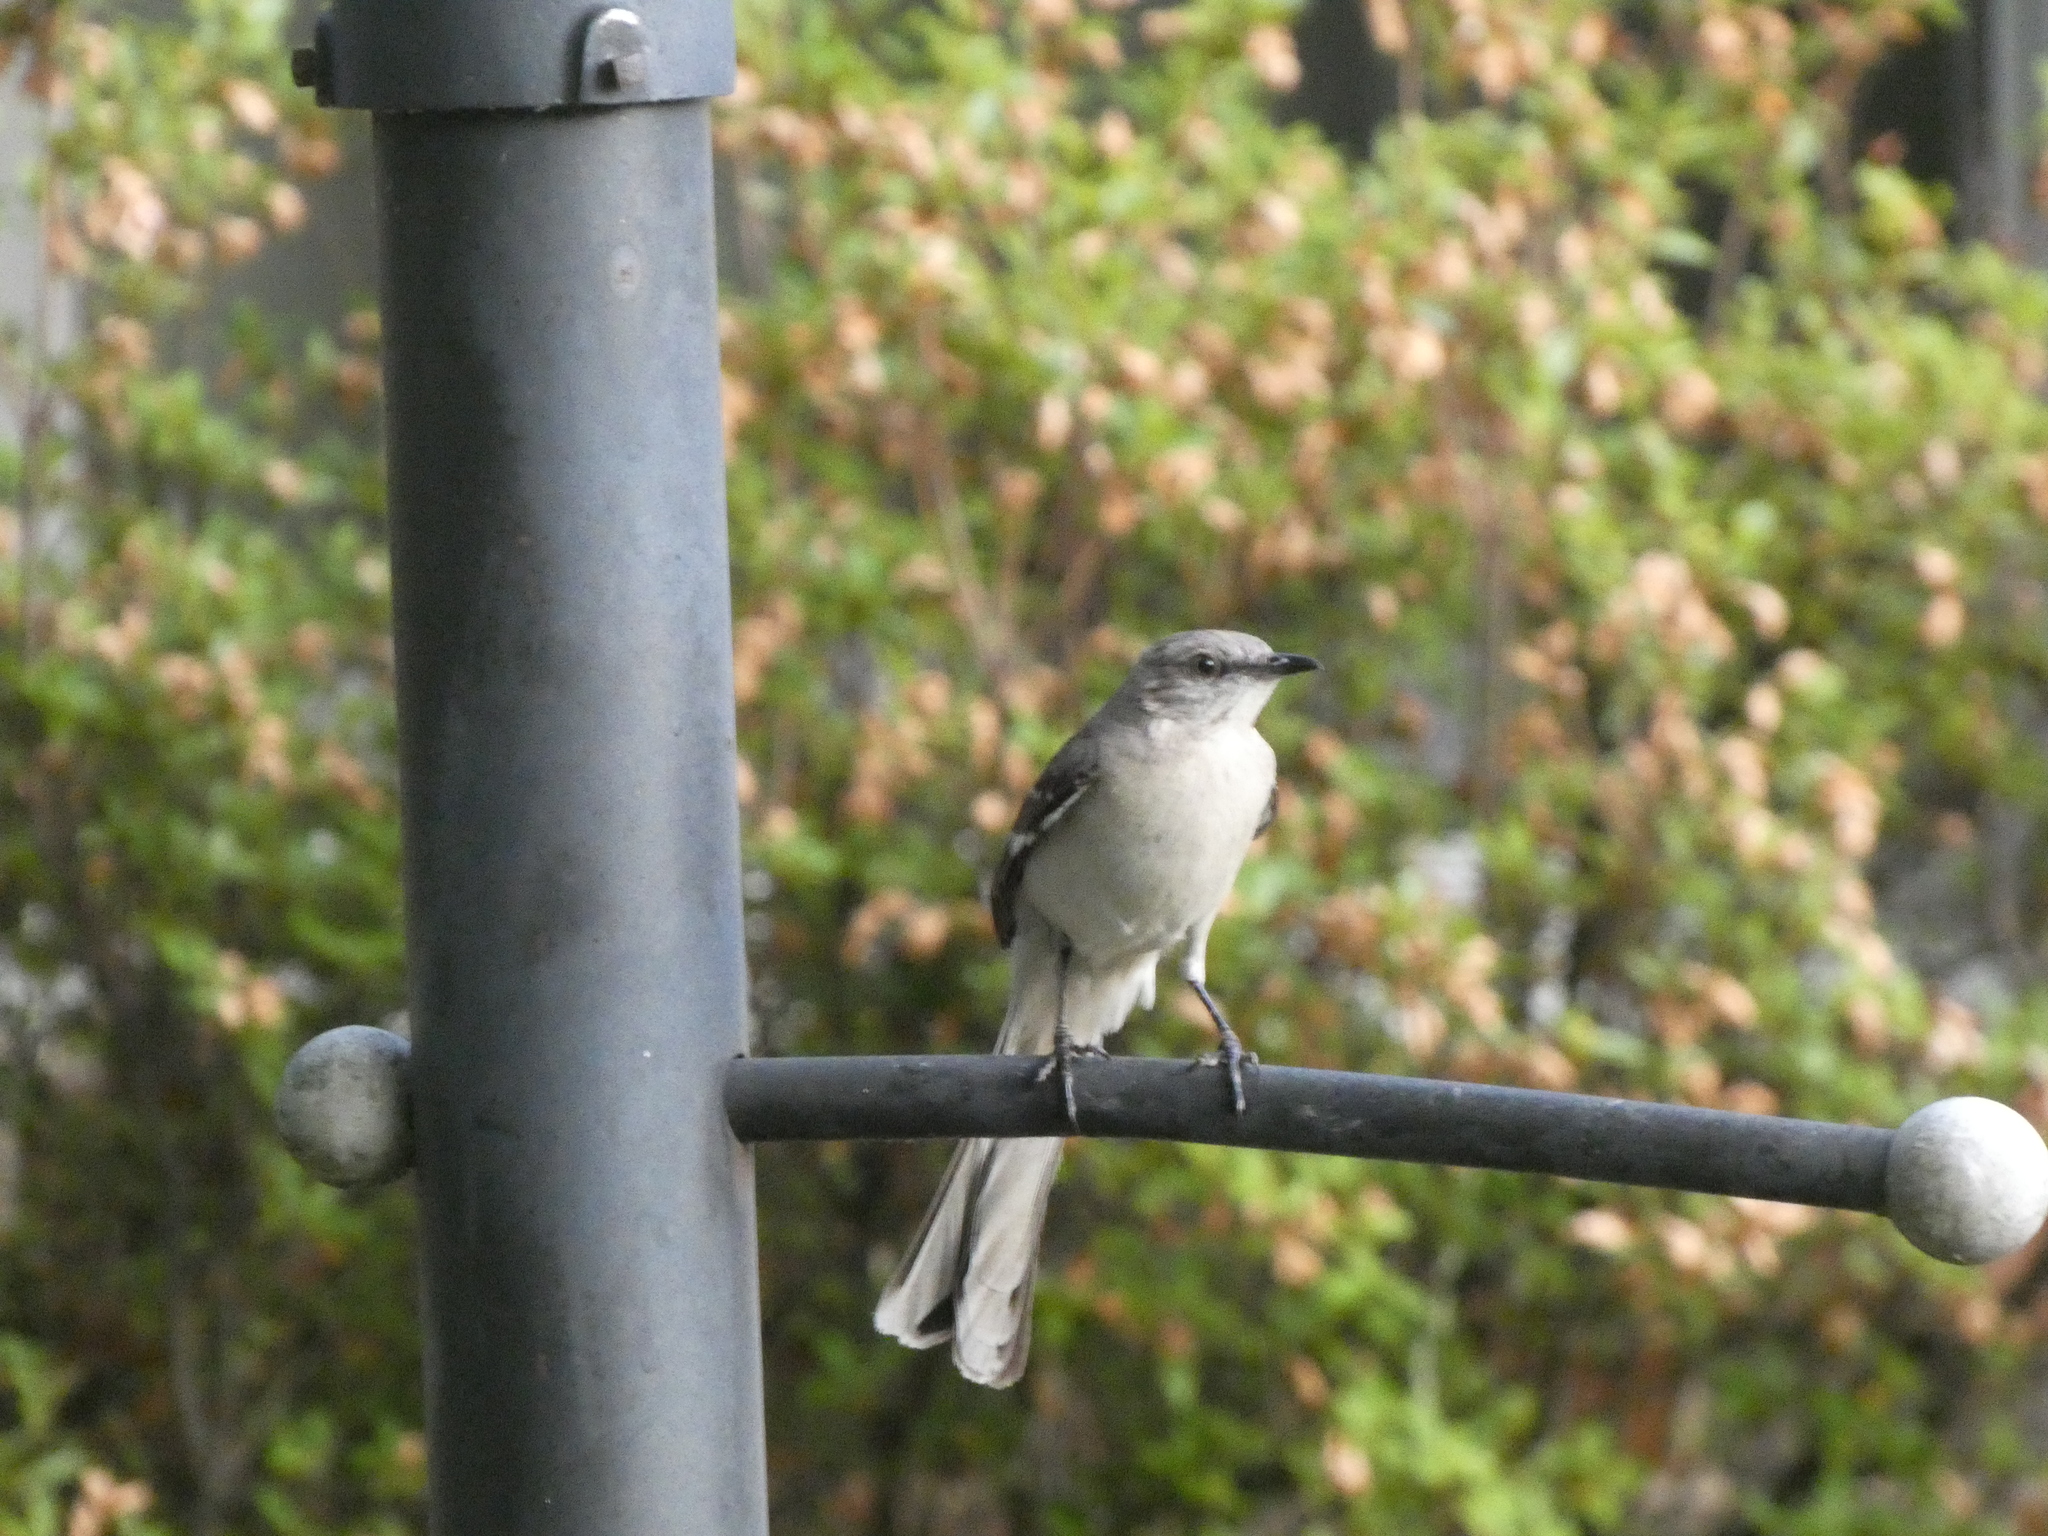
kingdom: Animalia
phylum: Chordata
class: Aves
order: Passeriformes
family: Mimidae
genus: Mimus
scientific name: Mimus polyglottos
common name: Northern mockingbird
